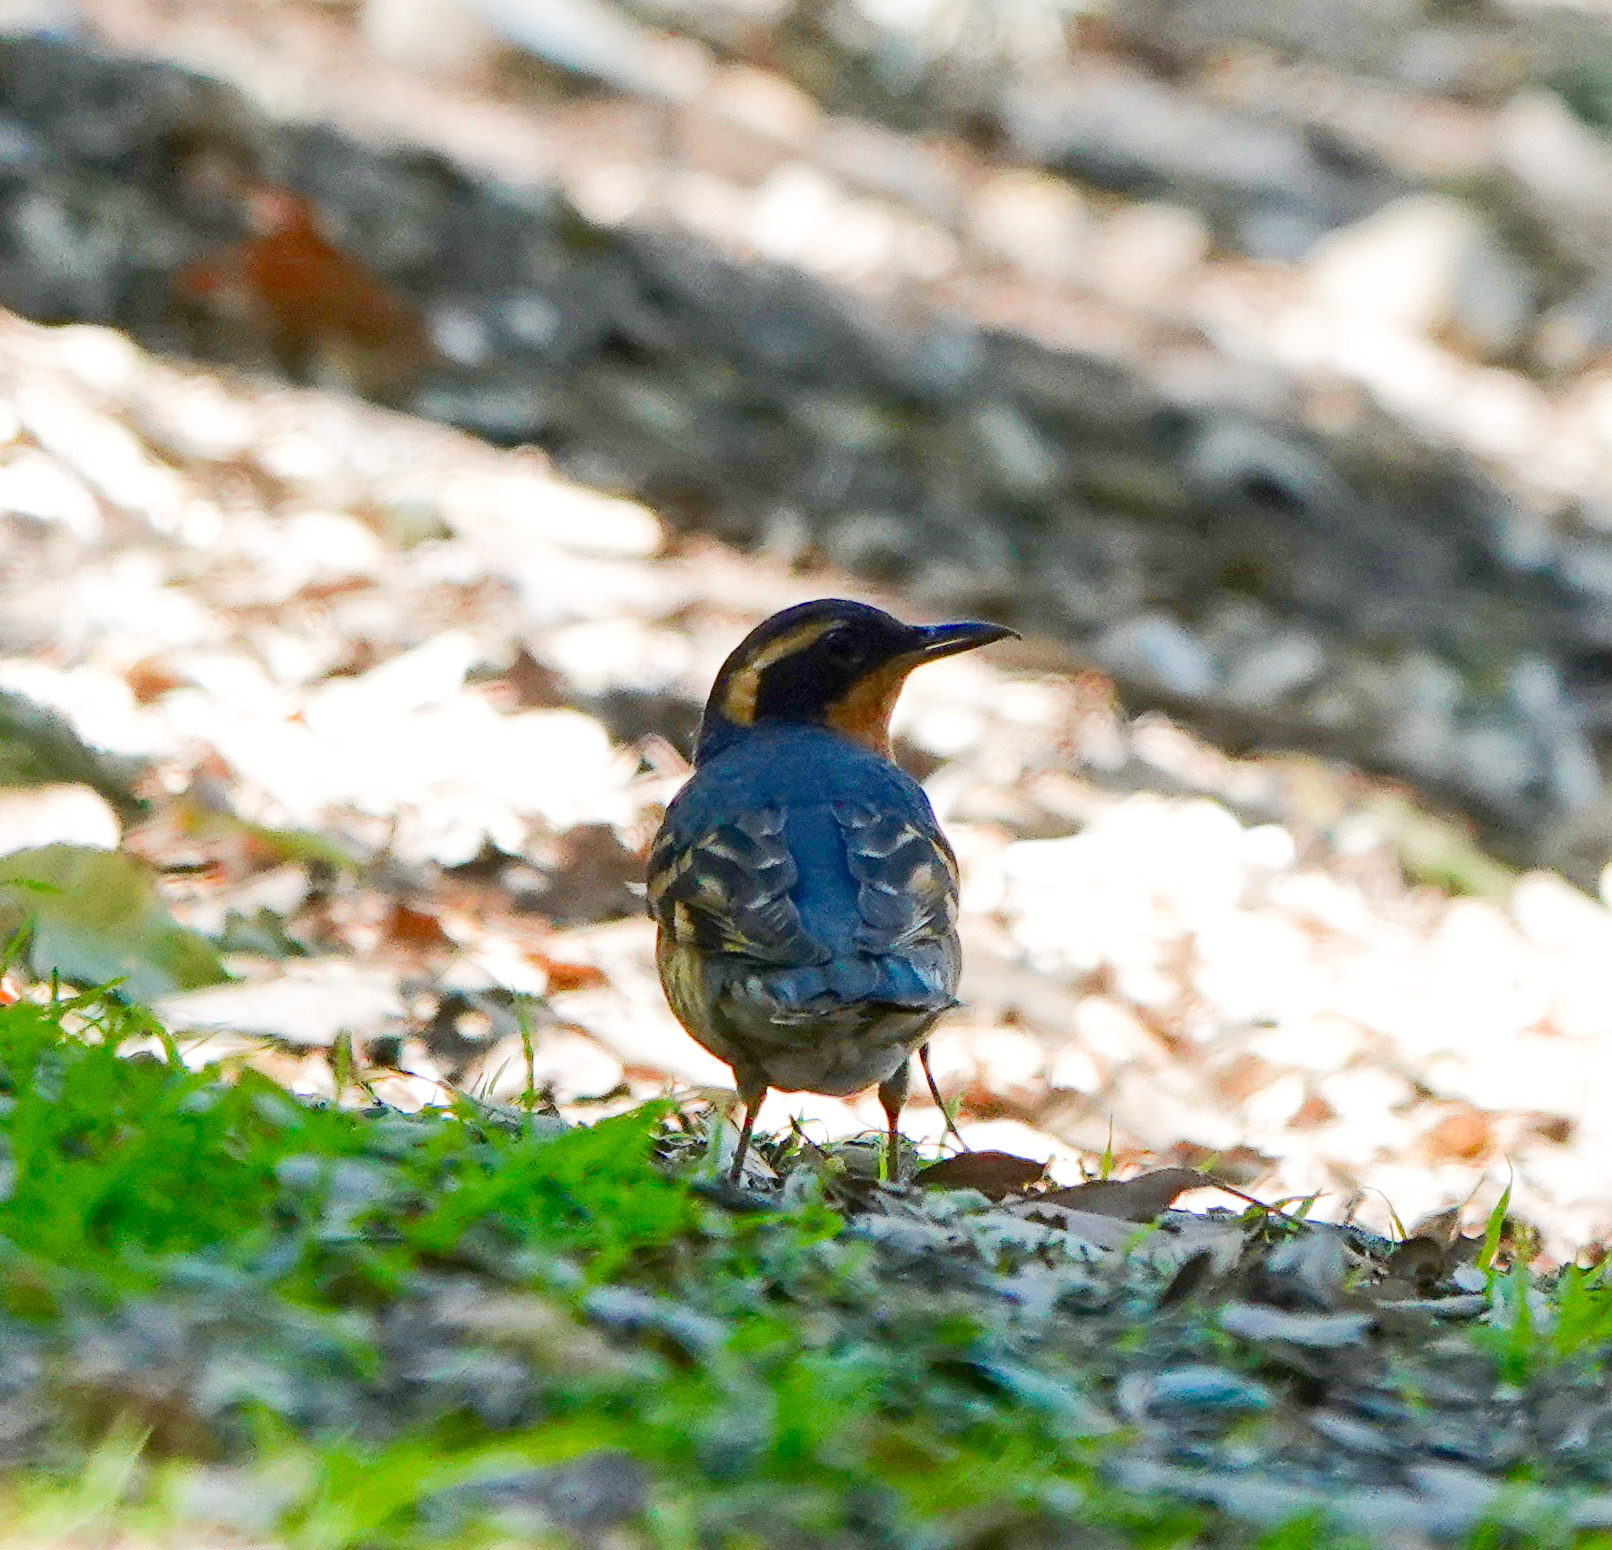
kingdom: Animalia
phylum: Chordata
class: Aves
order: Passeriformes
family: Turdidae
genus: Ixoreus
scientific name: Ixoreus naevius
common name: Varied thrush
